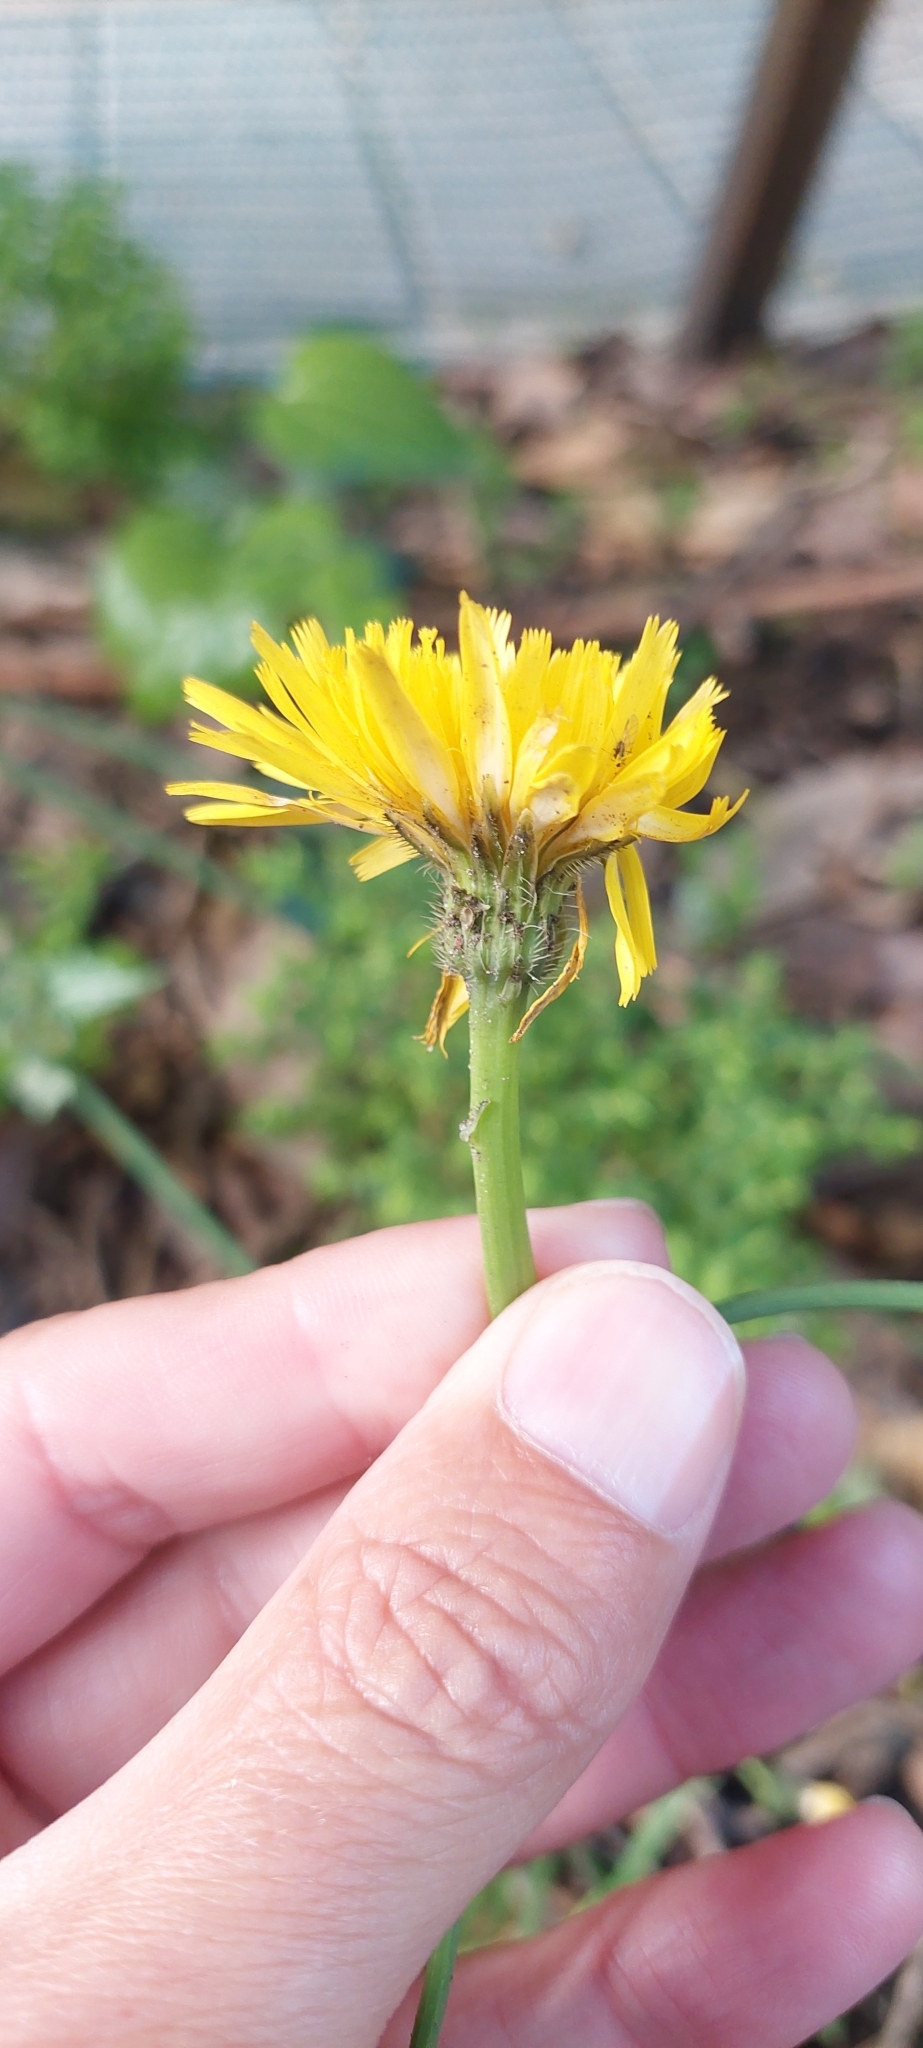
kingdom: Plantae
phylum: Tracheophyta
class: Magnoliopsida
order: Asterales
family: Asteraceae
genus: Hypochaeris
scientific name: Hypochaeris radicata
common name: Flatweed
